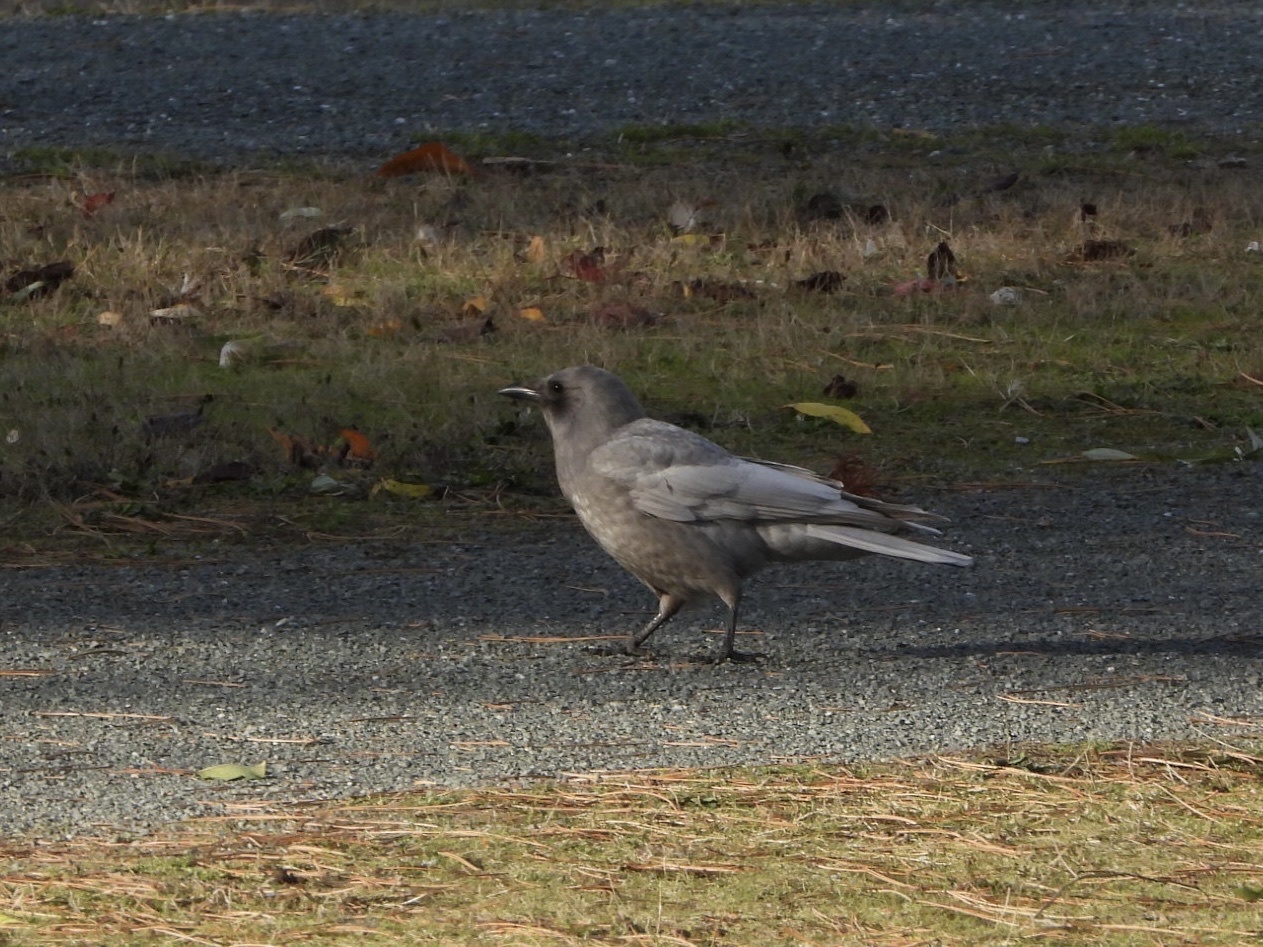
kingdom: Animalia
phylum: Chordata
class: Aves
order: Passeriformes
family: Corvidae
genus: Corvus
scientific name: Corvus brachyrhynchos
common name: American crow
